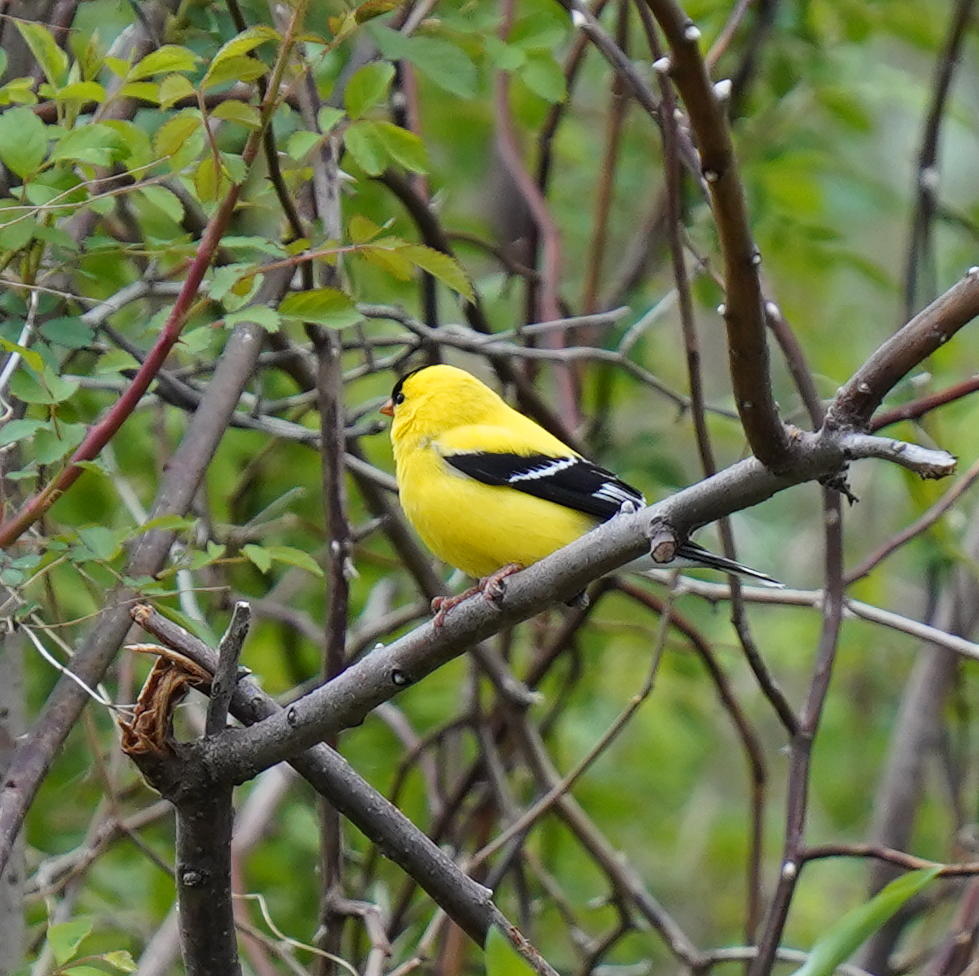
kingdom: Animalia
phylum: Chordata
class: Aves
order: Passeriformes
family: Fringillidae
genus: Spinus
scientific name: Spinus tristis
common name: American goldfinch
